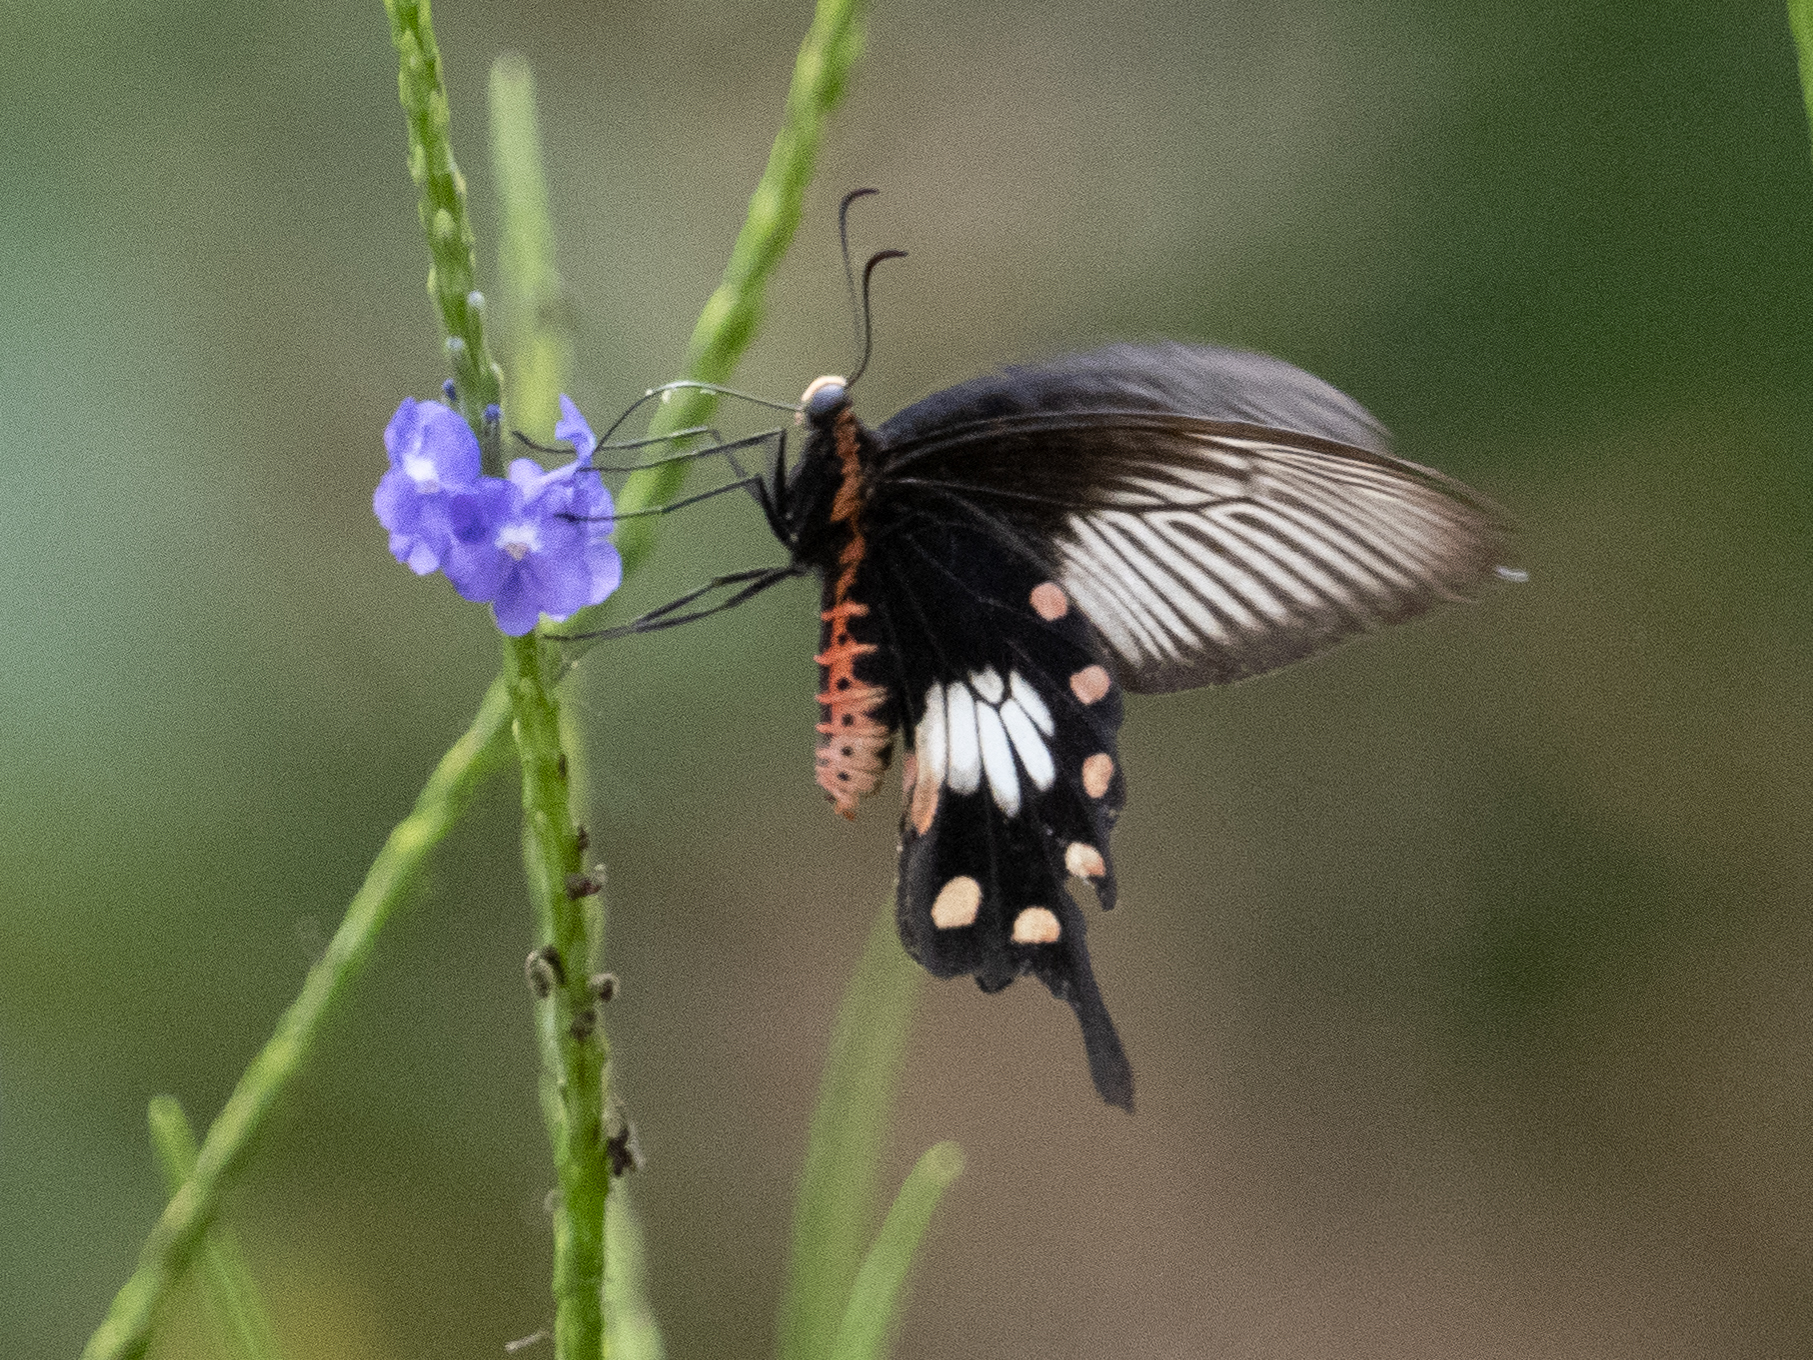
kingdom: Animalia
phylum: Arthropoda
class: Insecta
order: Lepidoptera
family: Papilionidae
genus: Pachliopta
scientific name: Pachliopta aristolochiae
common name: Common rose
